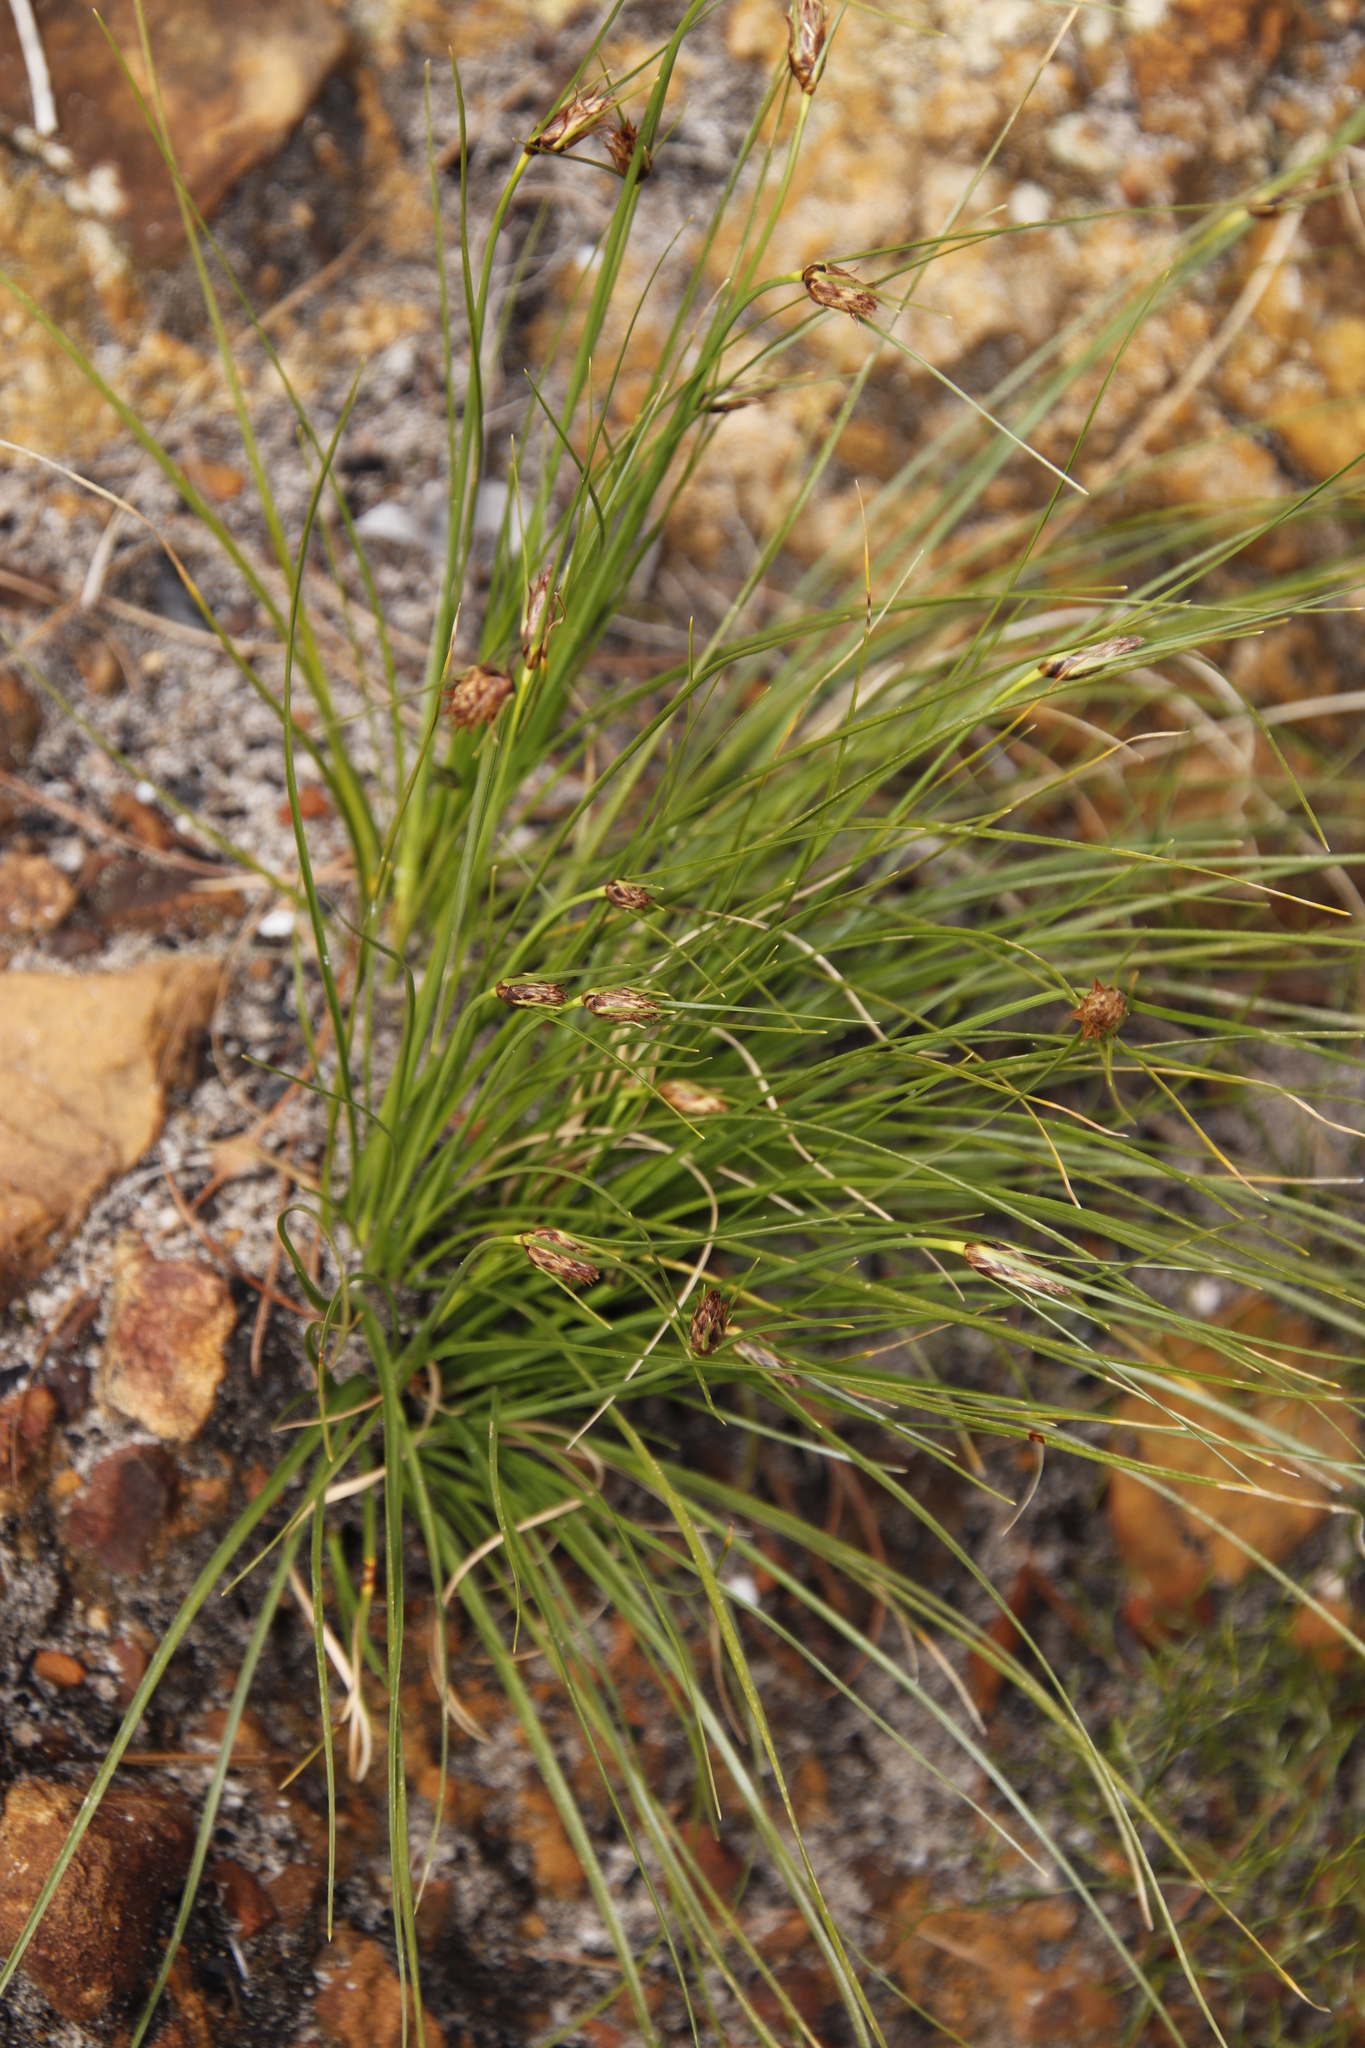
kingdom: Plantae
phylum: Tracheophyta
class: Liliopsida
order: Poales
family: Cyperaceae
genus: Ficinia
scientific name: Ficinia nigrescens
